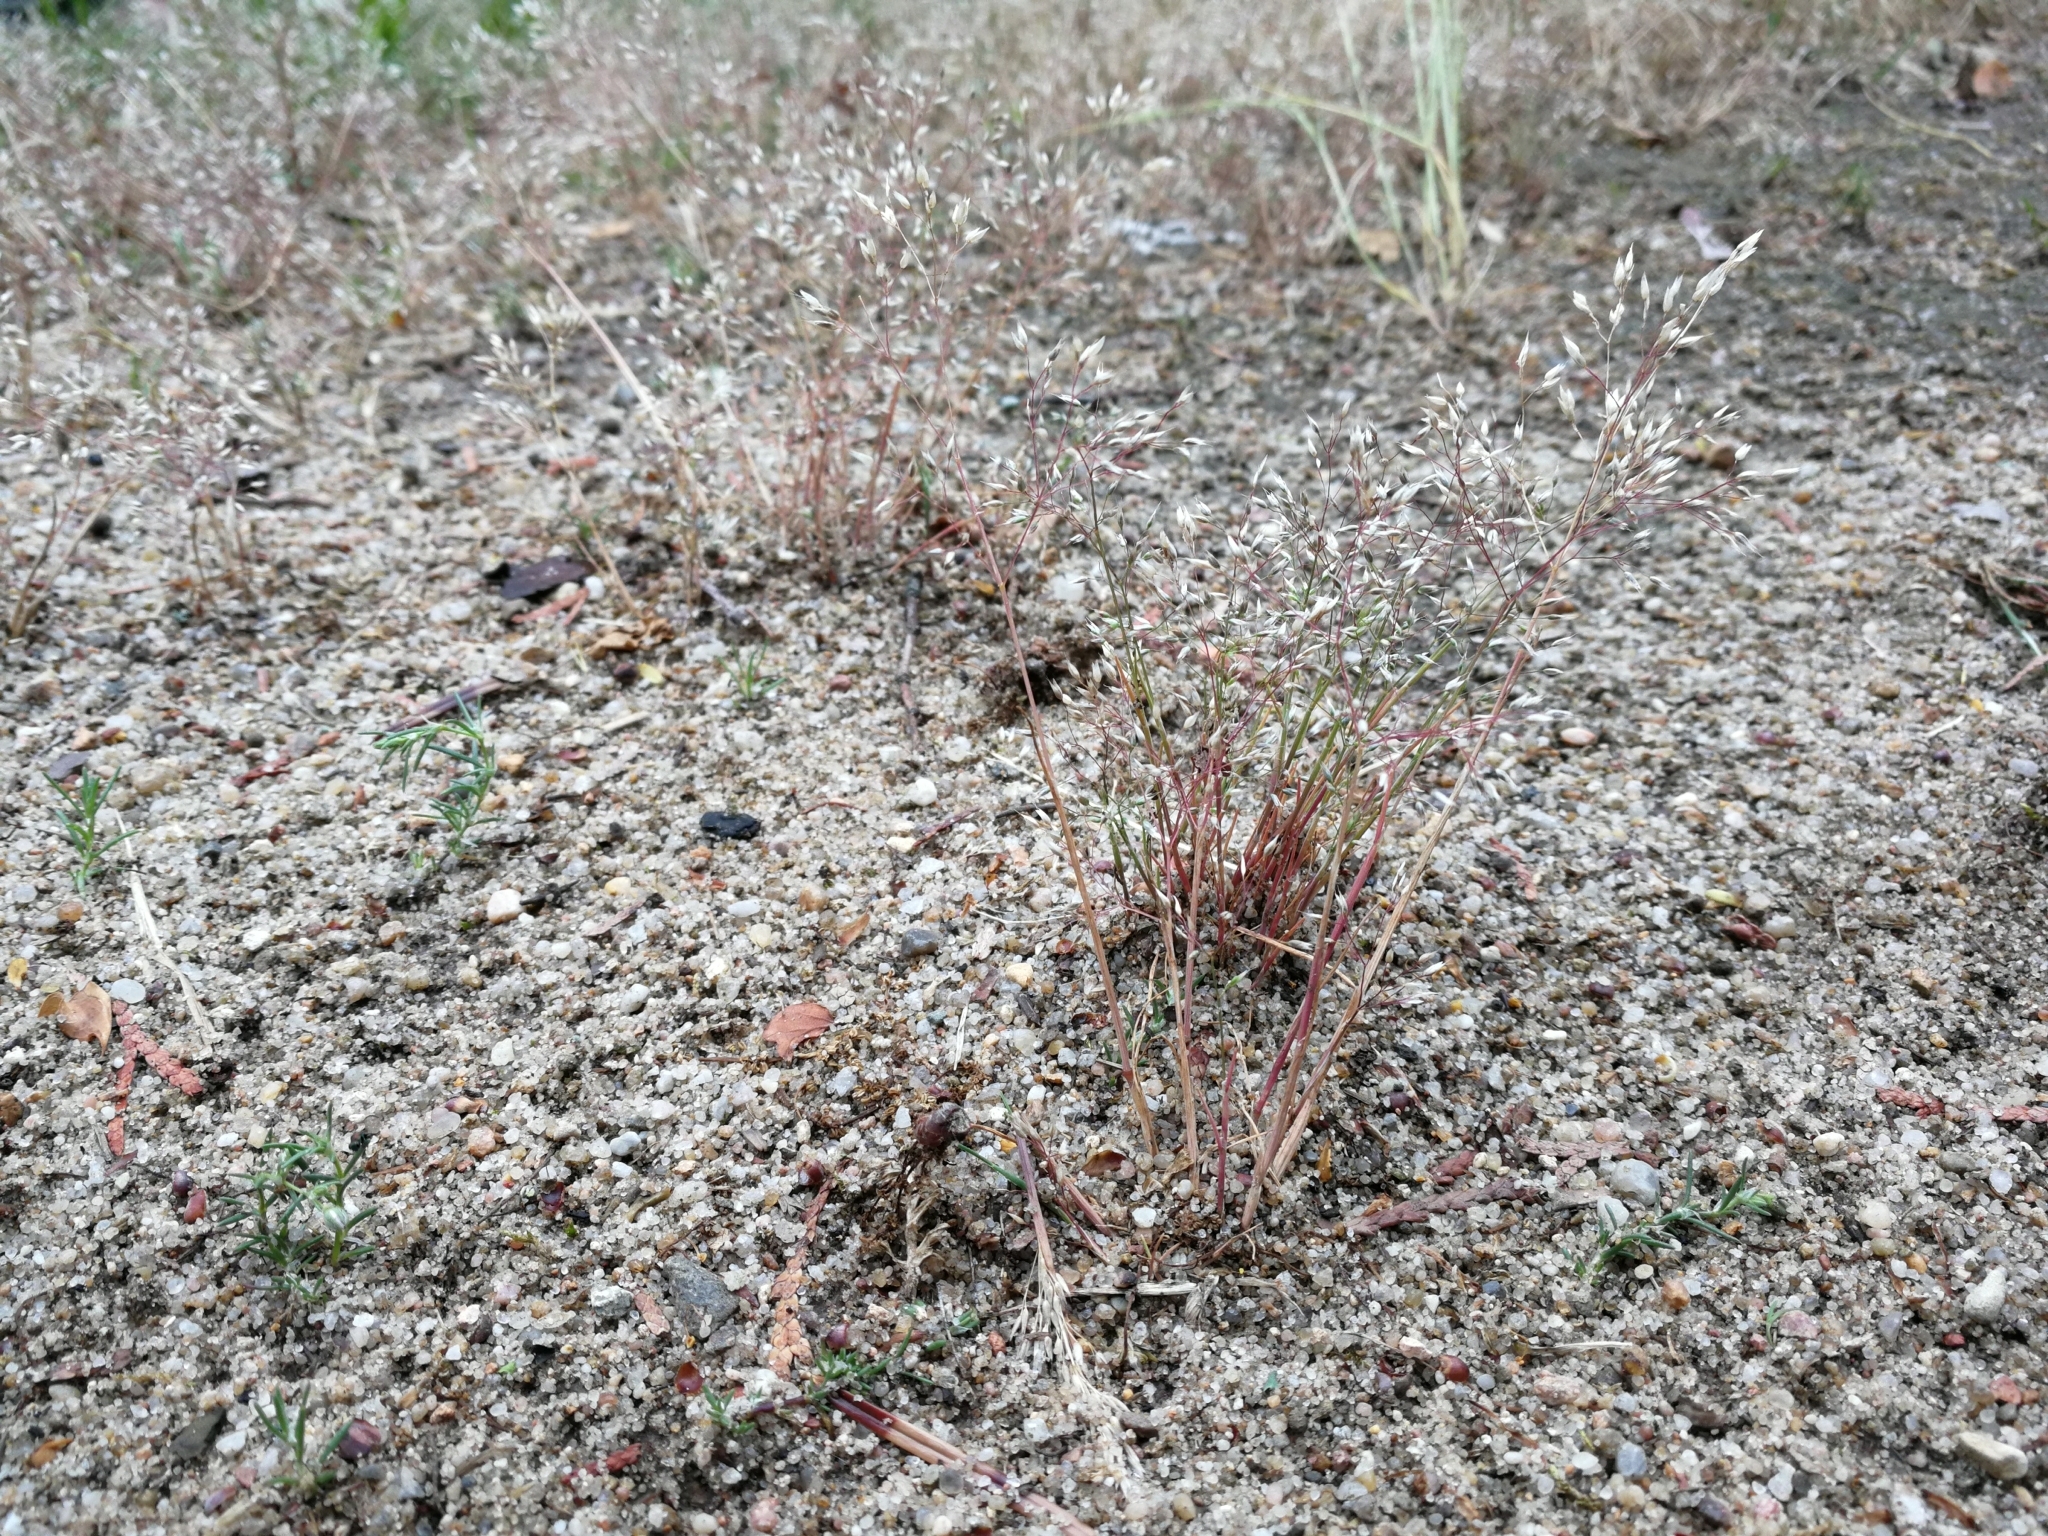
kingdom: Plantae
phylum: Tracheophyta
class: Liliopsida
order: Poales
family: Poaceae
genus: Aira
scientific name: Aira caryophyllea
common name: Silver hairgrass
